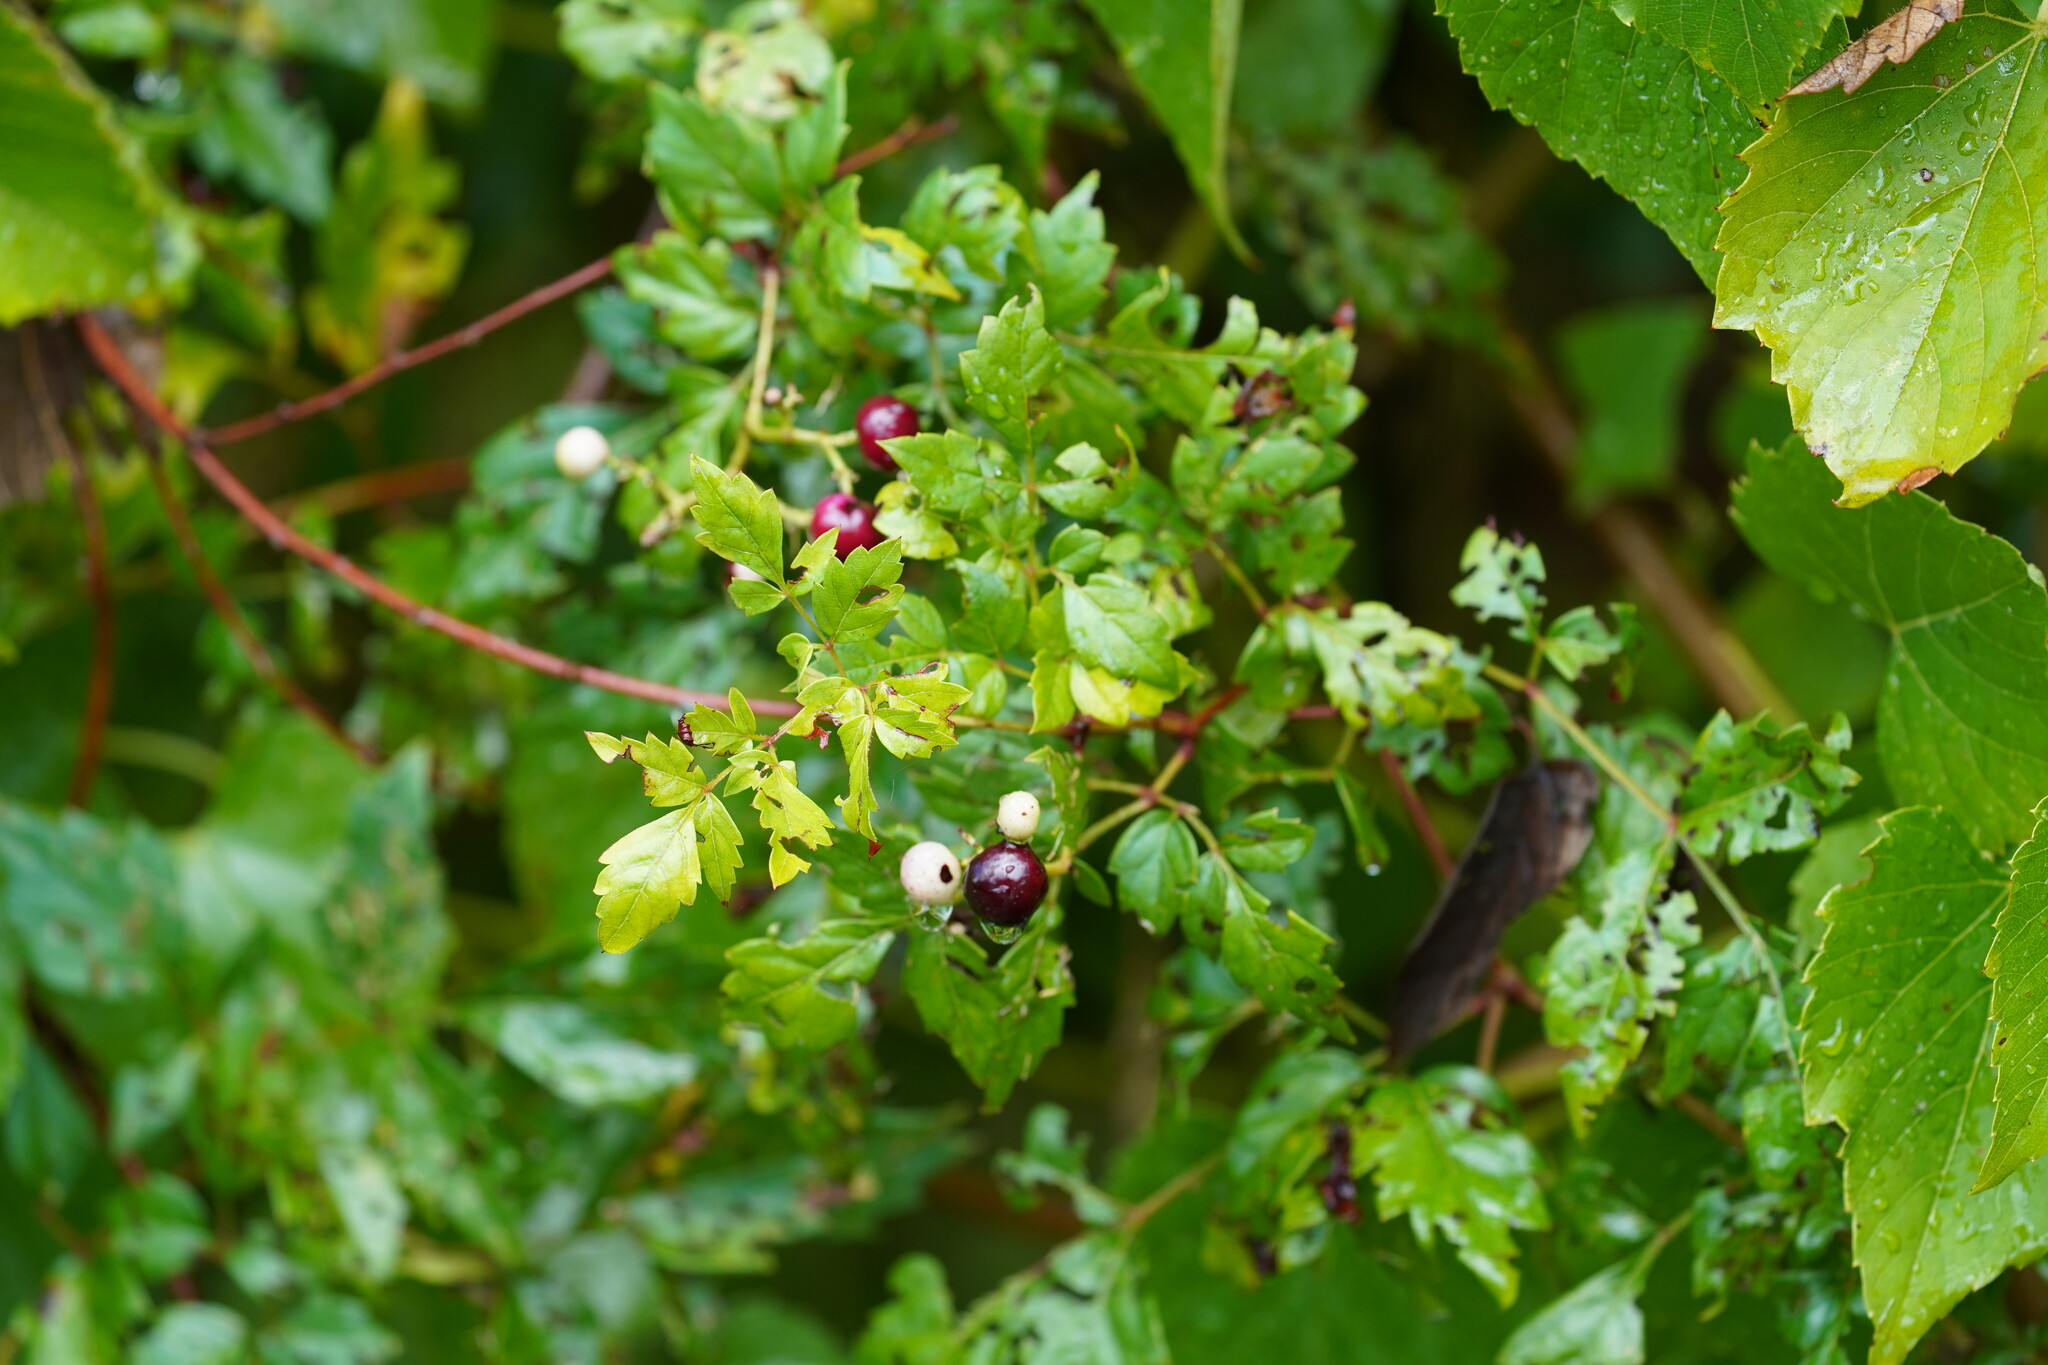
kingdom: Plantae
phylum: Tracheophyta
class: Magnoliopsida
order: Vitales
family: Vitaceae
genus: Nekemias
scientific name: Nekemias arborea
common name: Peppervine
